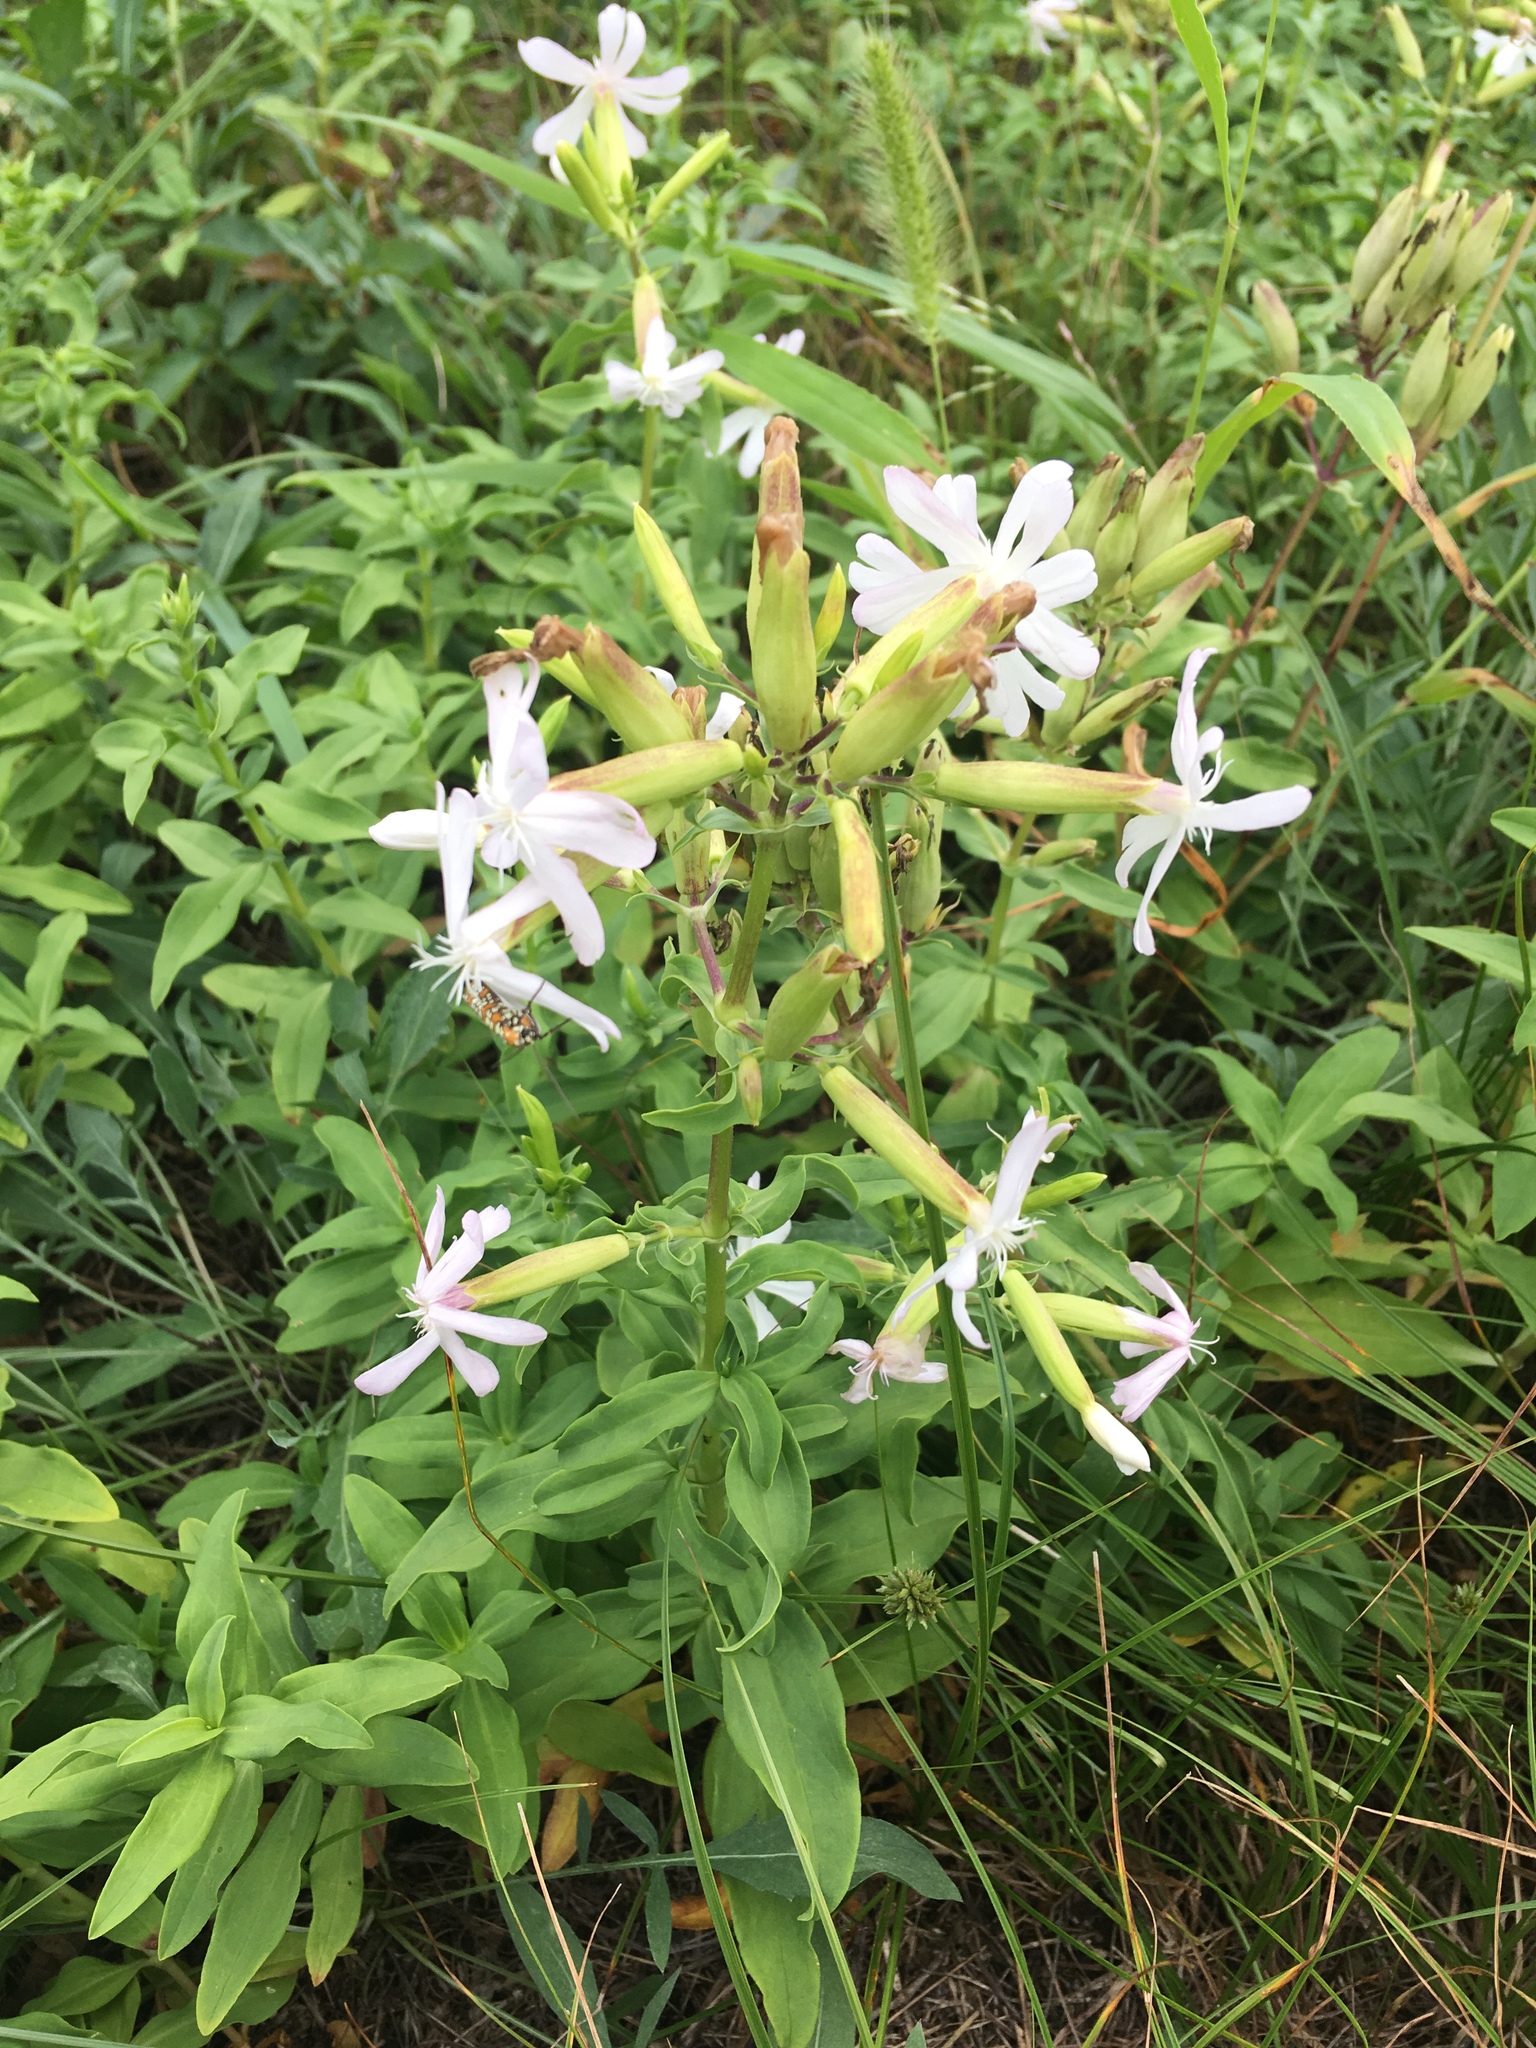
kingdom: Plantae
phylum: Tracheophyta
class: Magnoliopsida
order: Caryophyllales
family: Caryophyllaceae
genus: Saponaria
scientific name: Saponaria officinalis
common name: Soapwort
